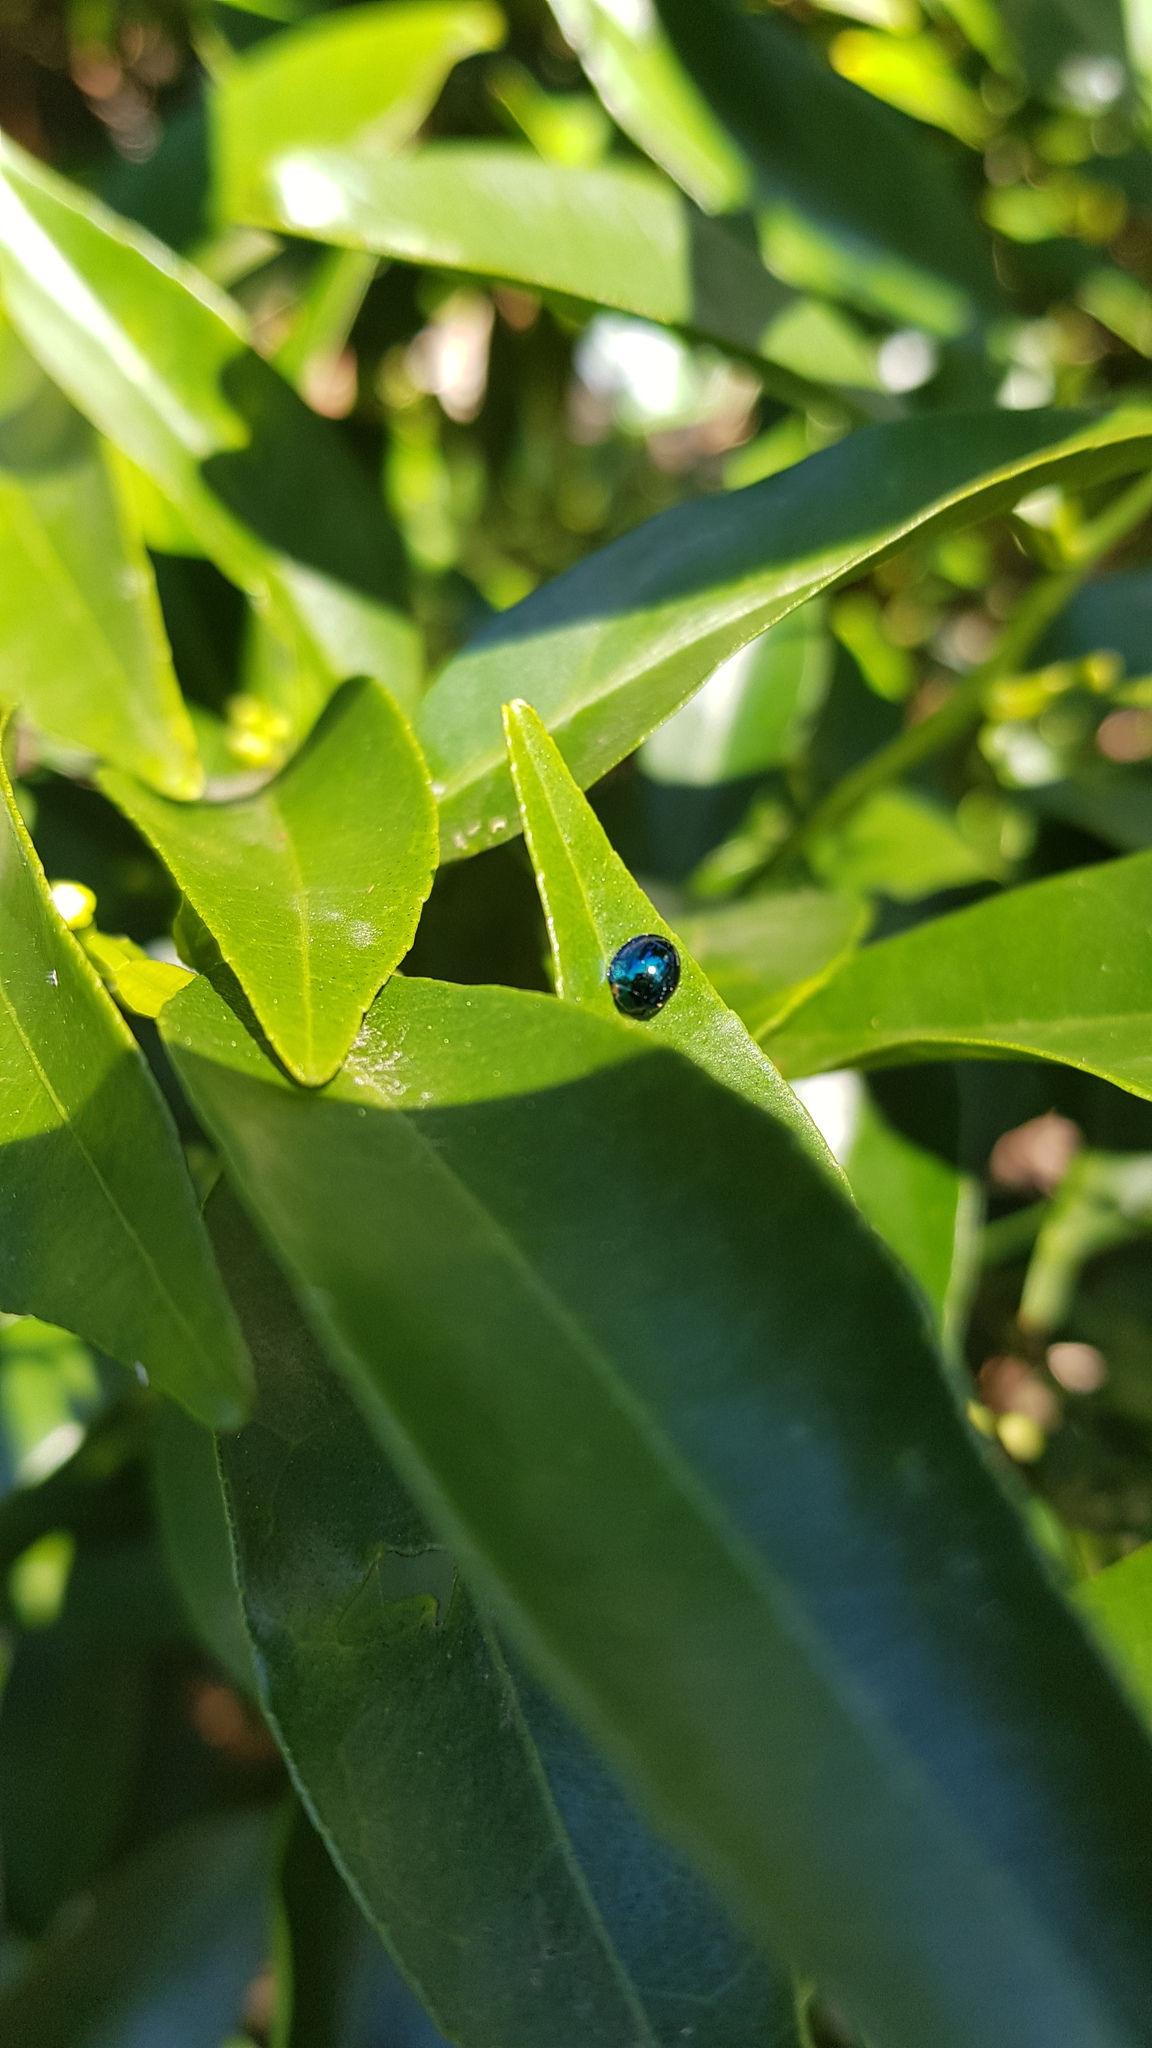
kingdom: Animalia
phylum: Arthropoda
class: Insecta
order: Coleoptera
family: Coccinellidae
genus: Halmus
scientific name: Halmus chalybeus
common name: Steel blue ladybird beetle
